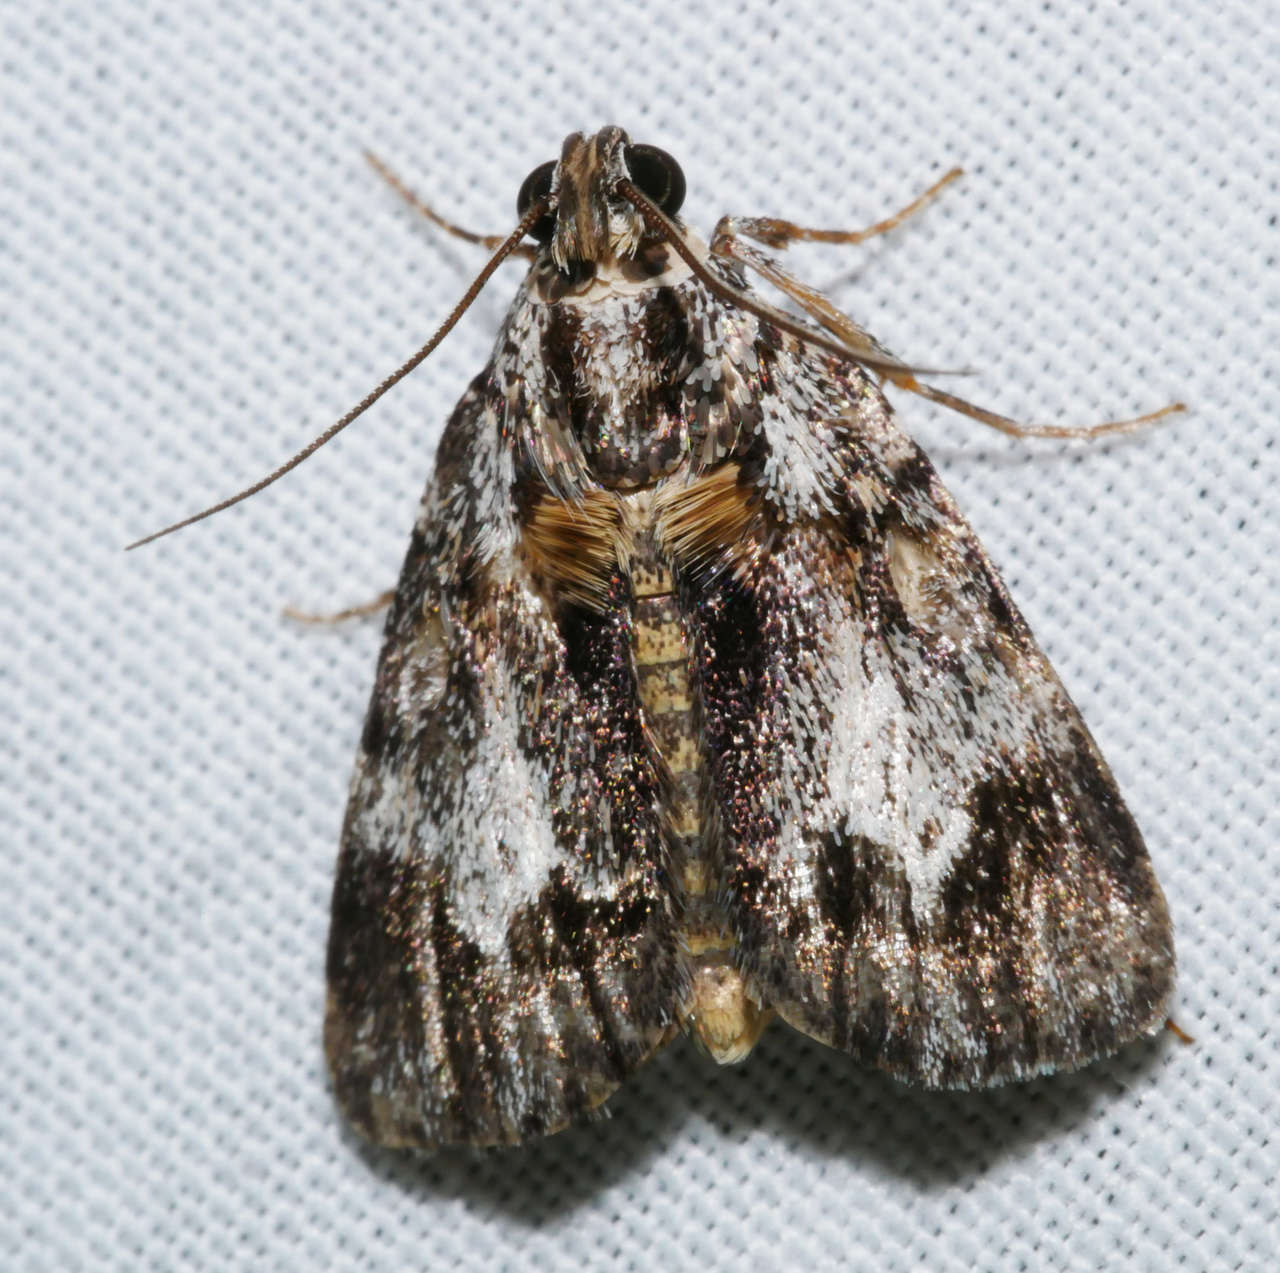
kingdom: Animalia
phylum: Arthropoda
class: Insecta
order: Lepidoptera
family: Pyralidae
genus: Spectrotrota
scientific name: Spectrotrota fimbrialis
